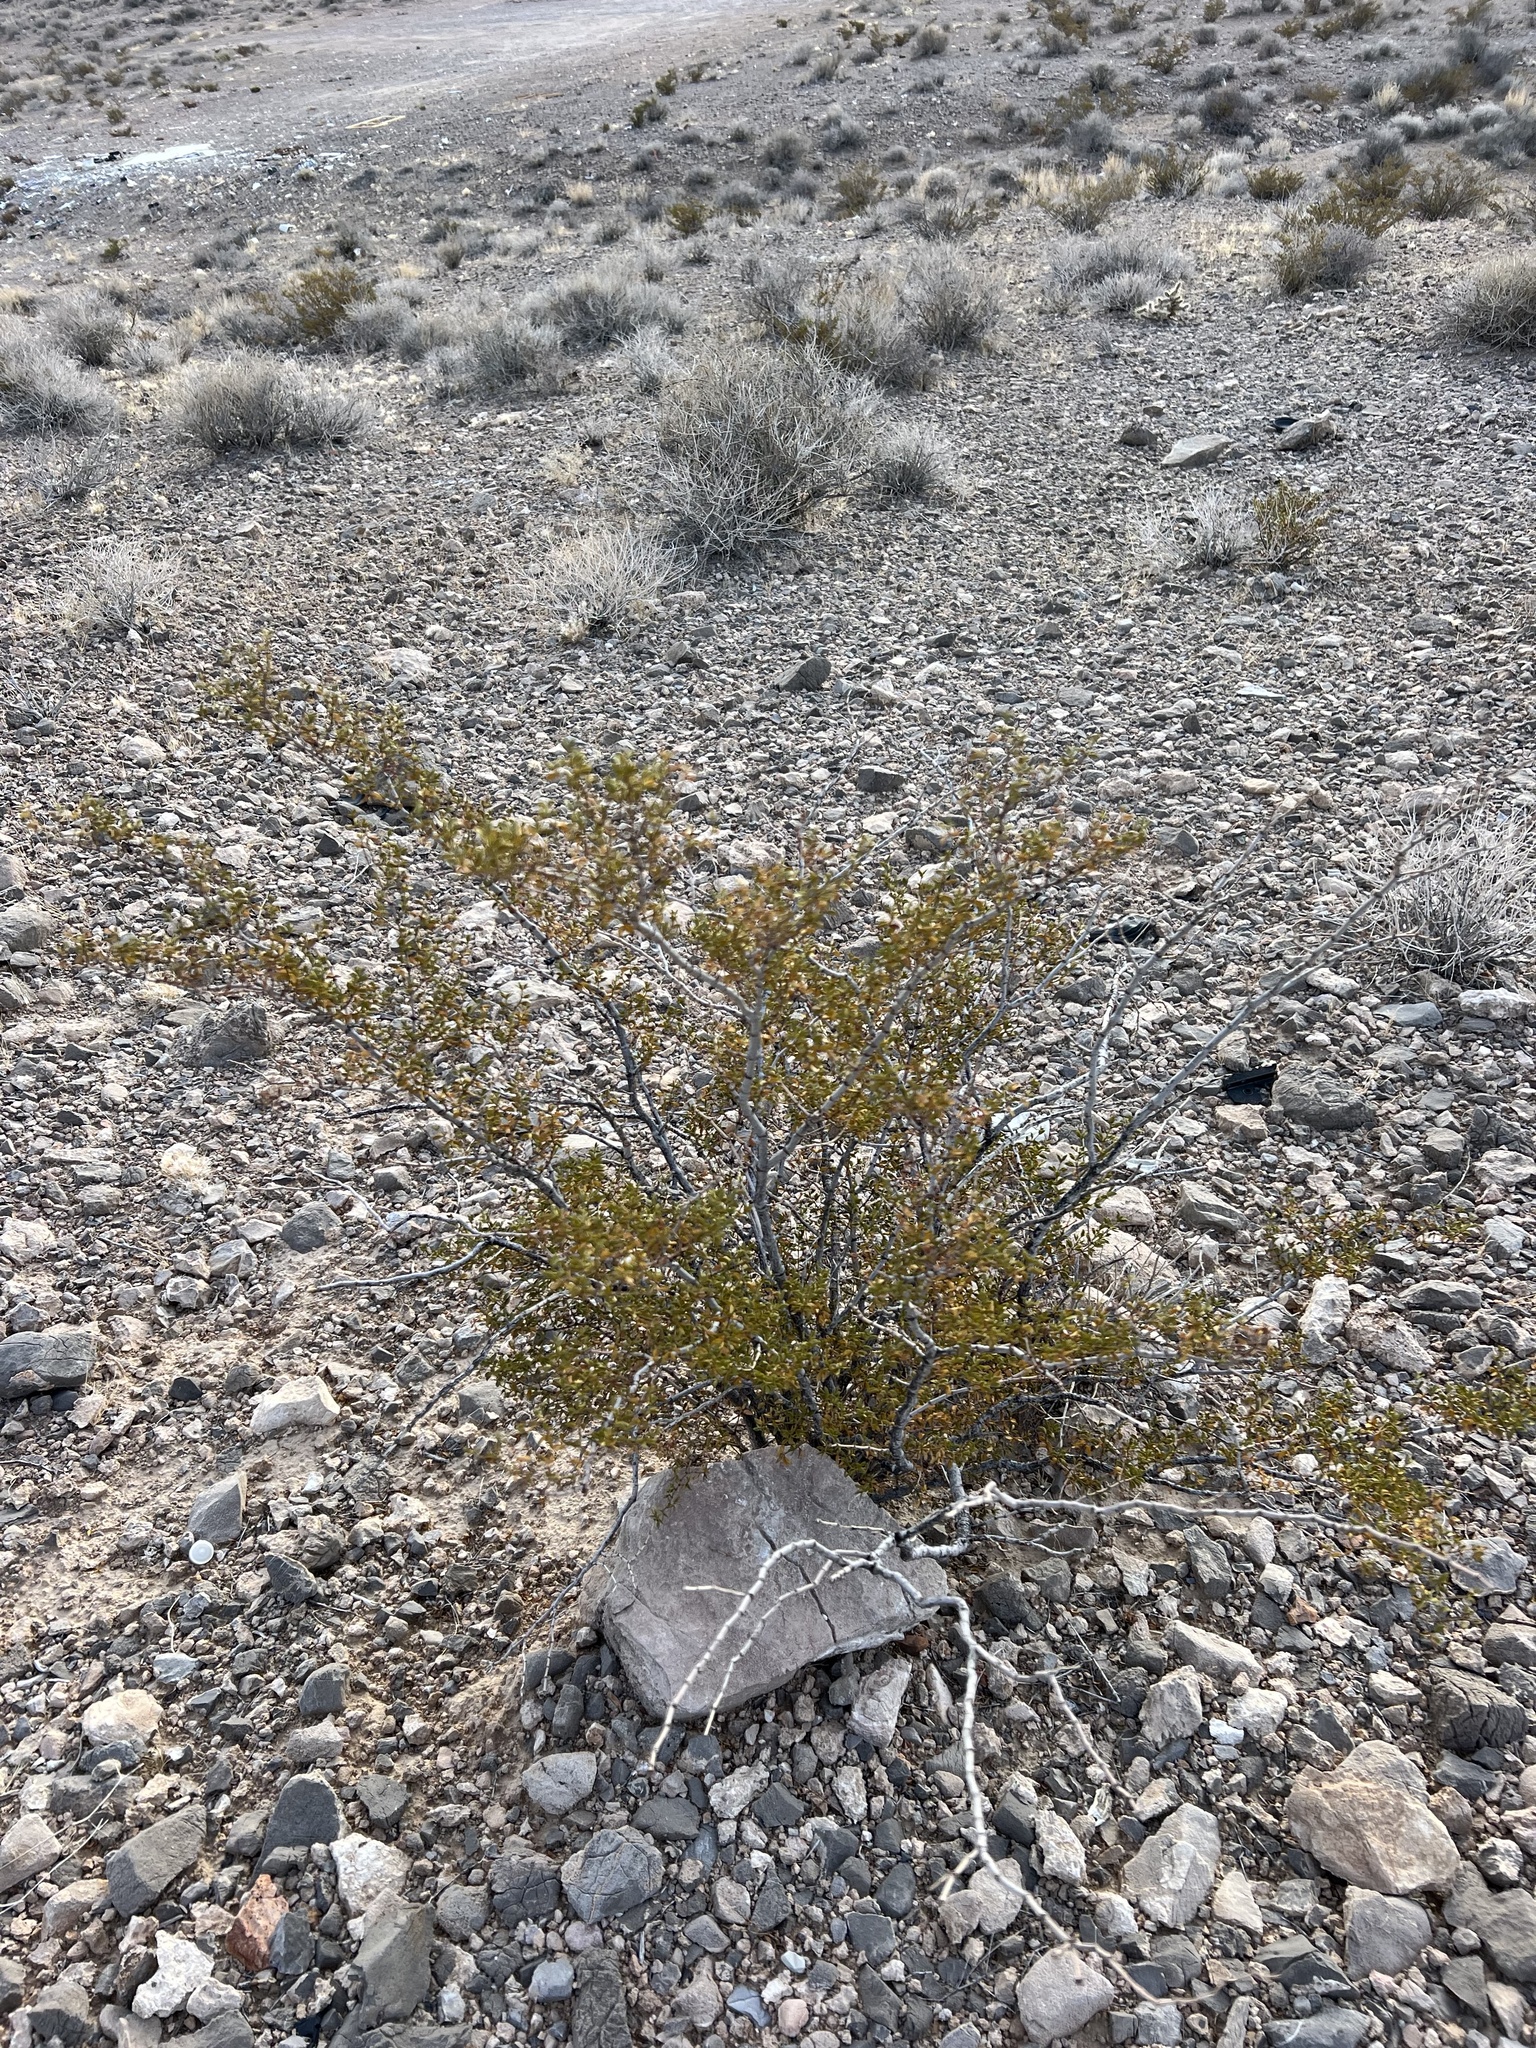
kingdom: Plantae
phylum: Tracheophyta
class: Magnoliopsida
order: Zygophyllales
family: Zygophyllaceae
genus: Larrea
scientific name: Larrea tridentata
